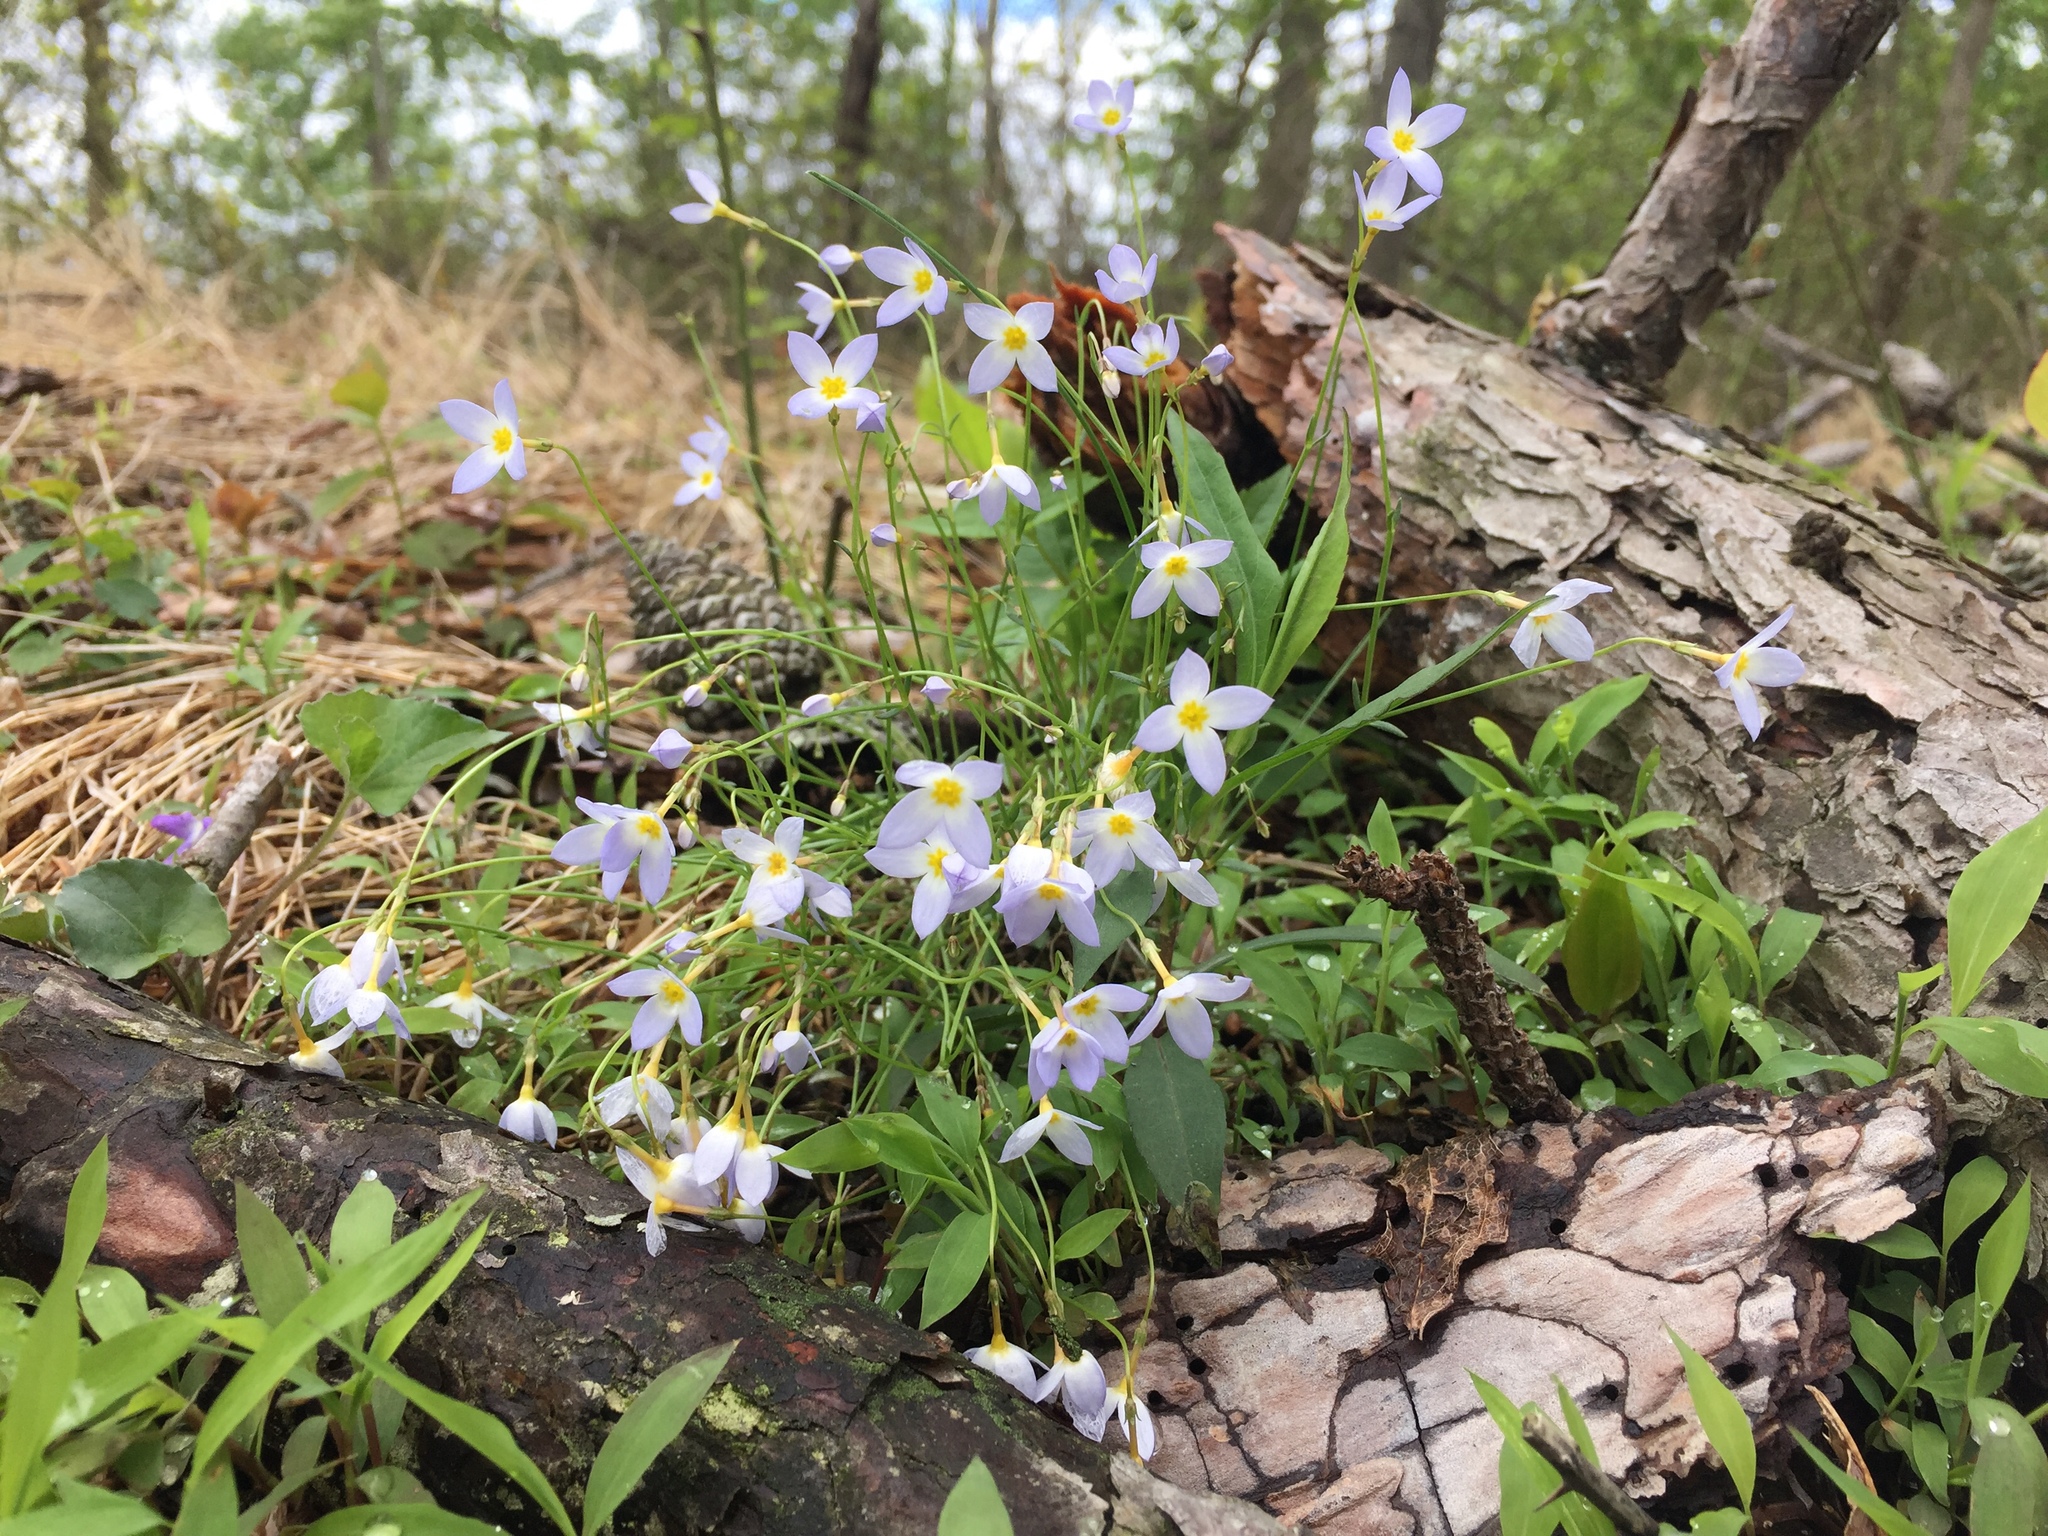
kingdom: Plantae
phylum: Tracheophyta
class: Magnoliopsida
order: Gentianales
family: Rubiaceae
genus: Houstonia
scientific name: Houstonia caerulea
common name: Bluets
